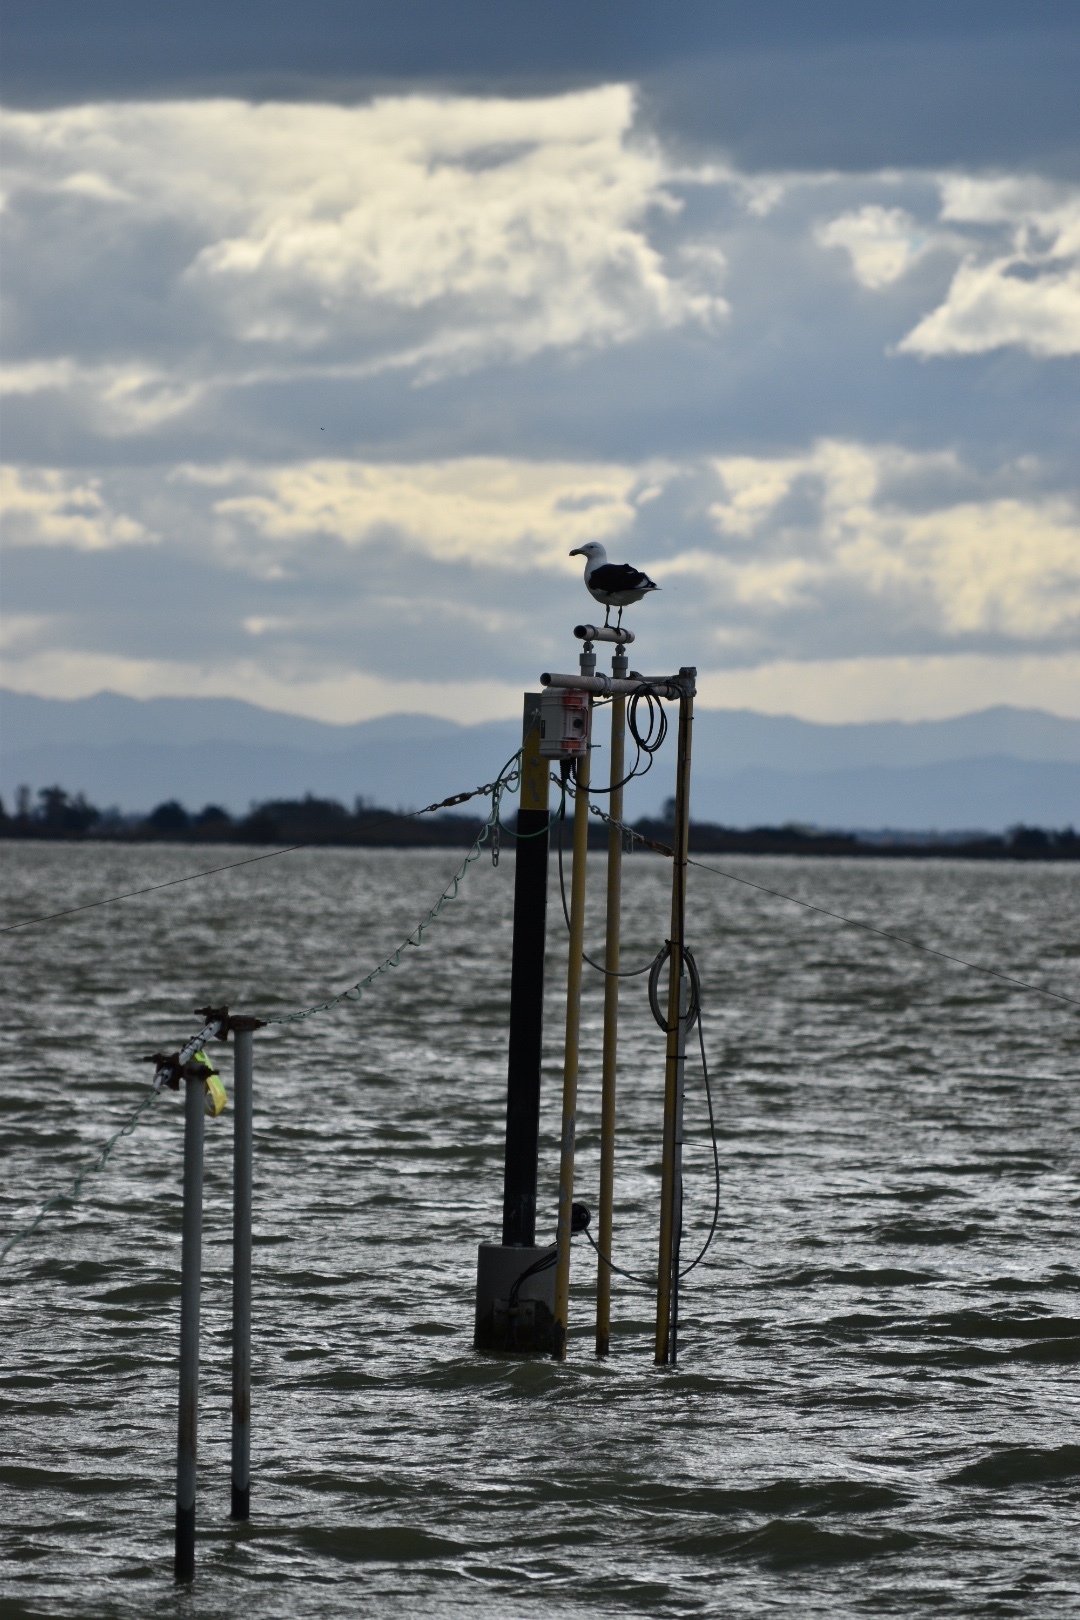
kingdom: Animalia
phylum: Chordata
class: Aves
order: Charadriiformes
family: Laridae
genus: Larus
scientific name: Larus dominicanus
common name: Kelp gull
